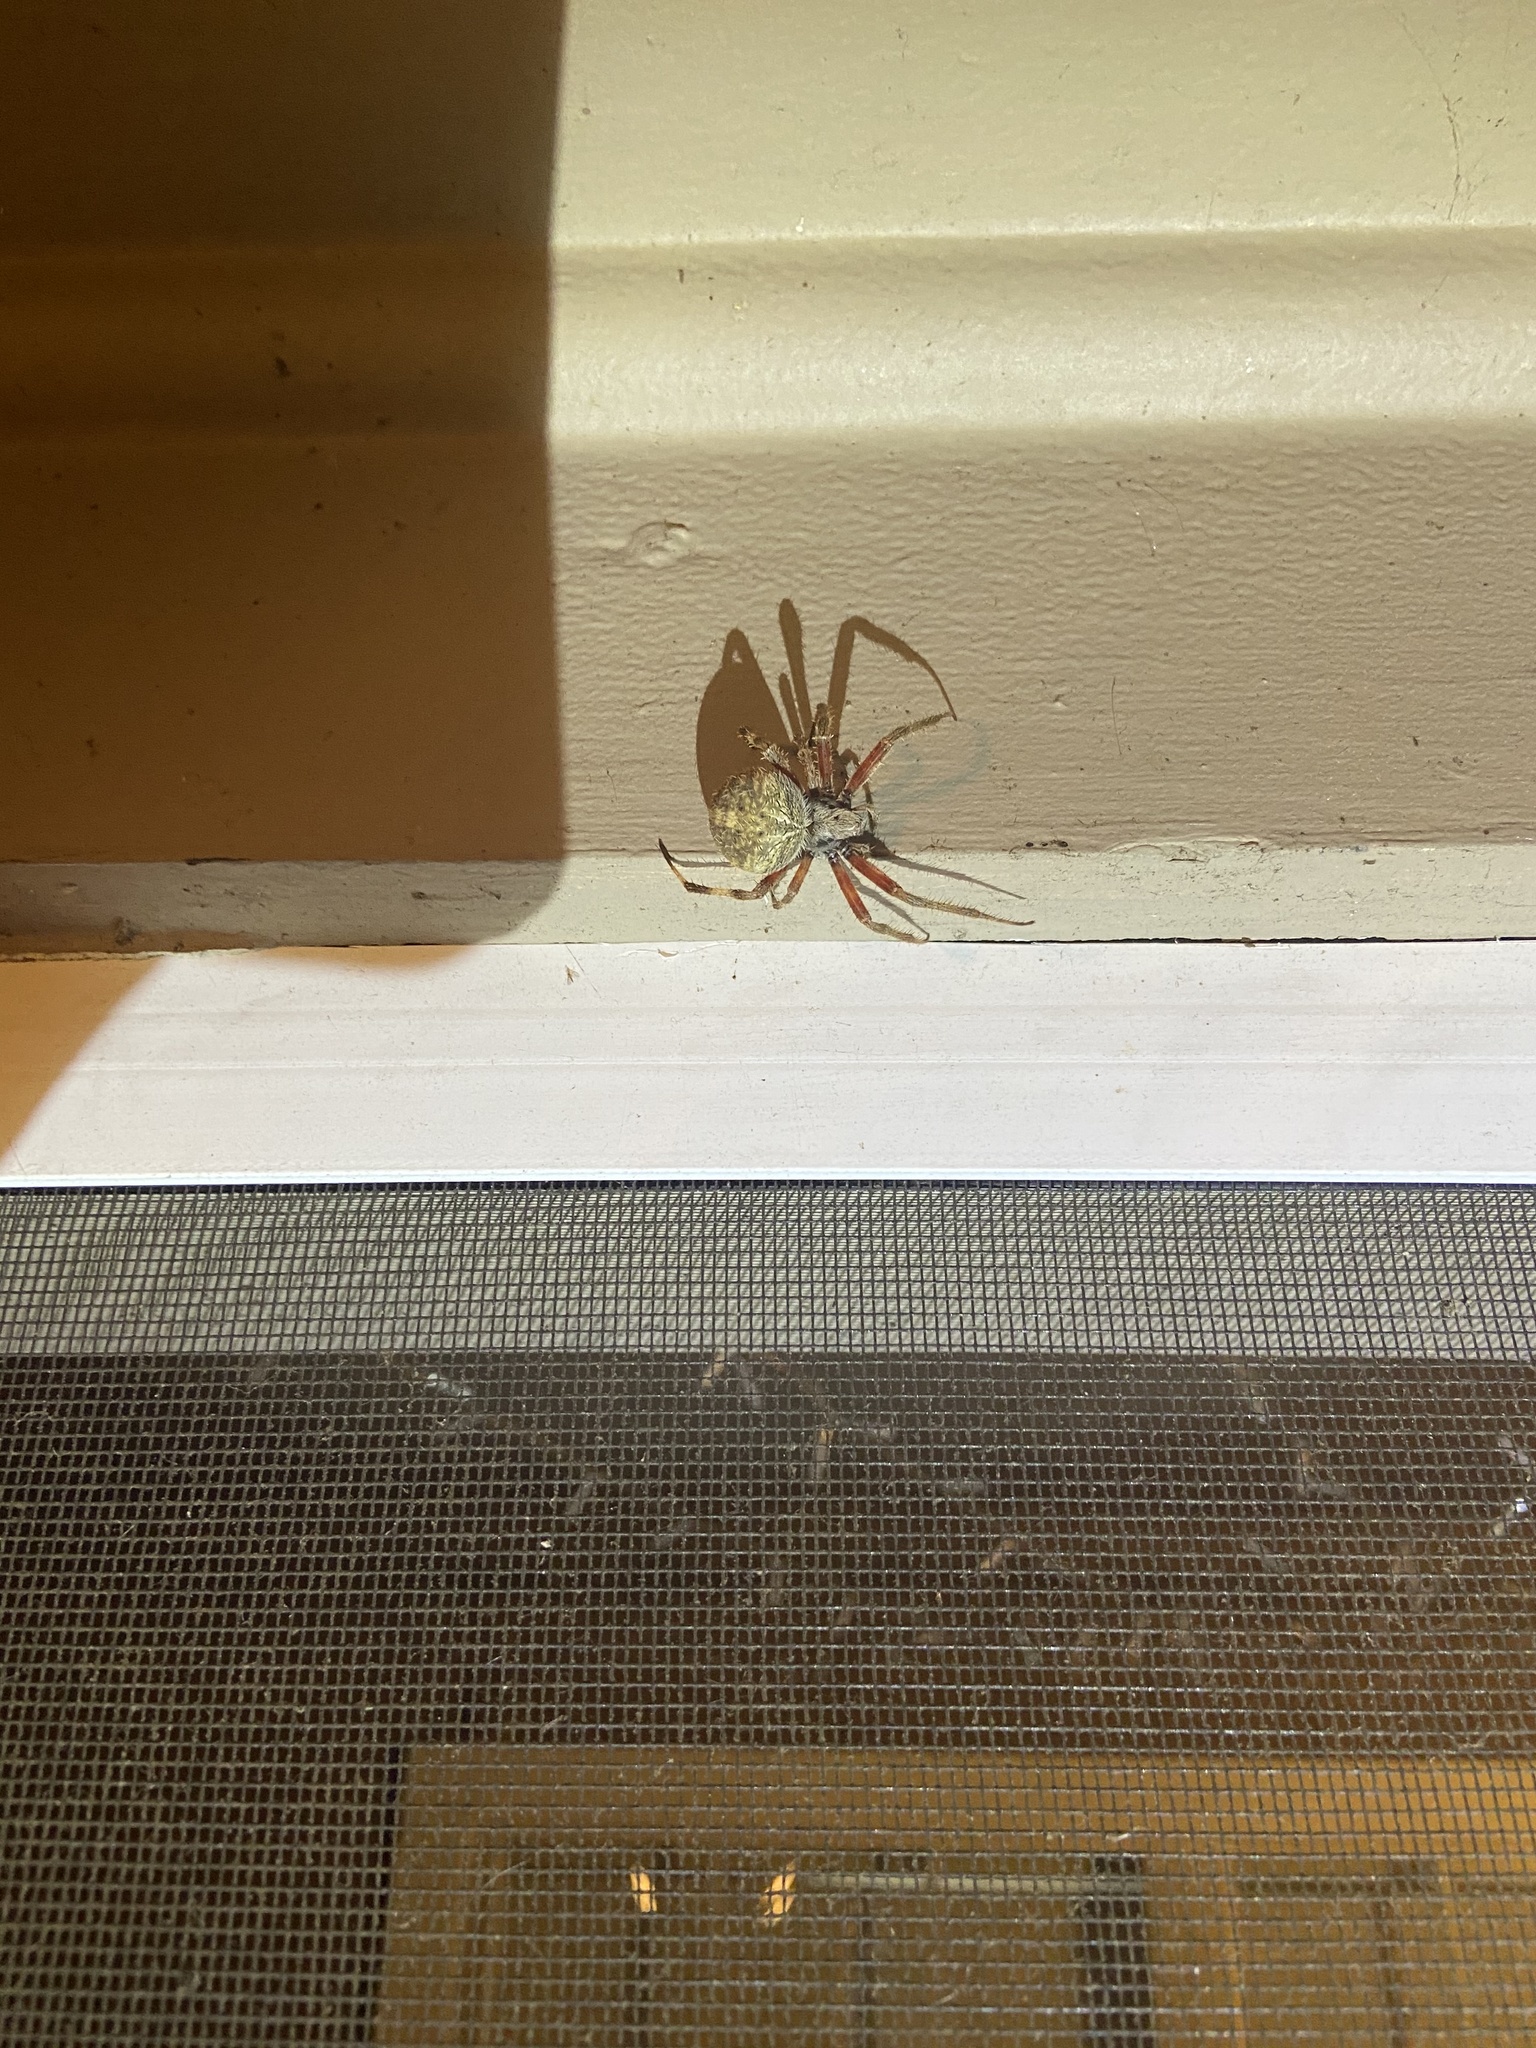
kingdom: Animalia
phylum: Arthropoda
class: Arachnida
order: Araneae
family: Araneidae
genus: Neoscona
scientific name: Neoscona crucifera
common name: Spotted orbweaver
